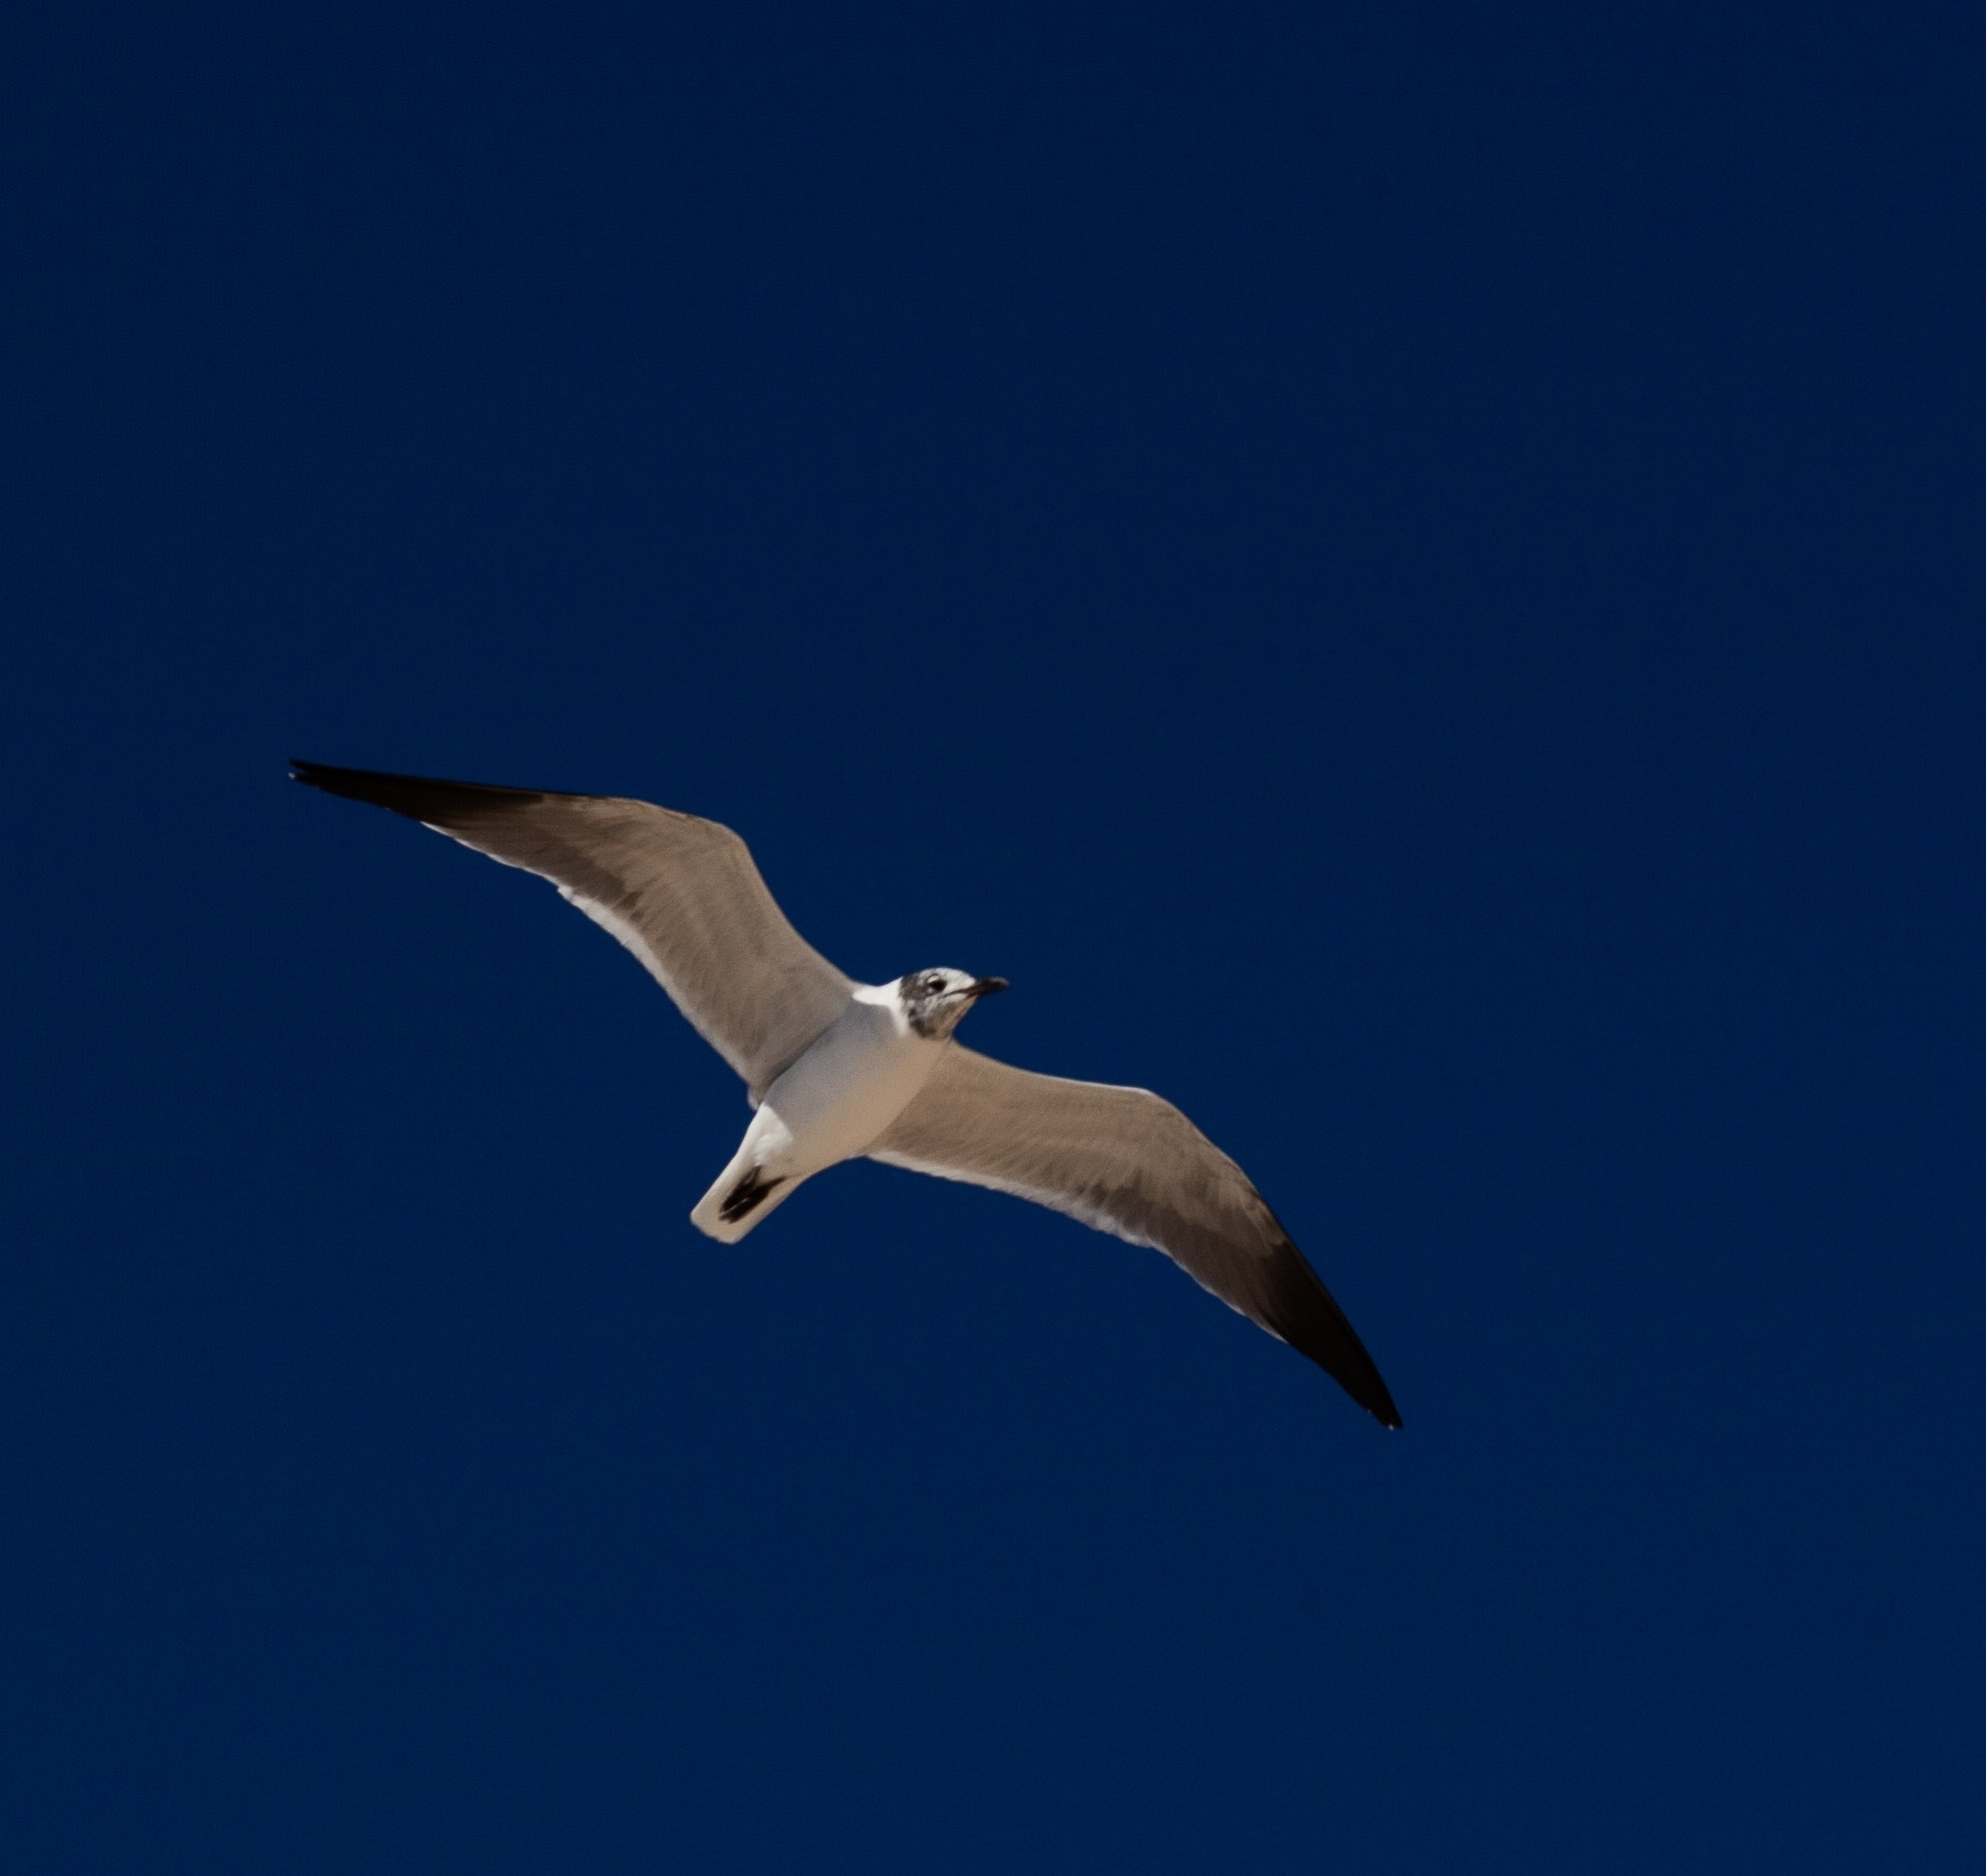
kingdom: Animalia
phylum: Chordata
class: Aves
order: Charadriiformes
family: Laridae
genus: Leucophaeus
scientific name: Leucophaeus atricilla
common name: Laughing gull
